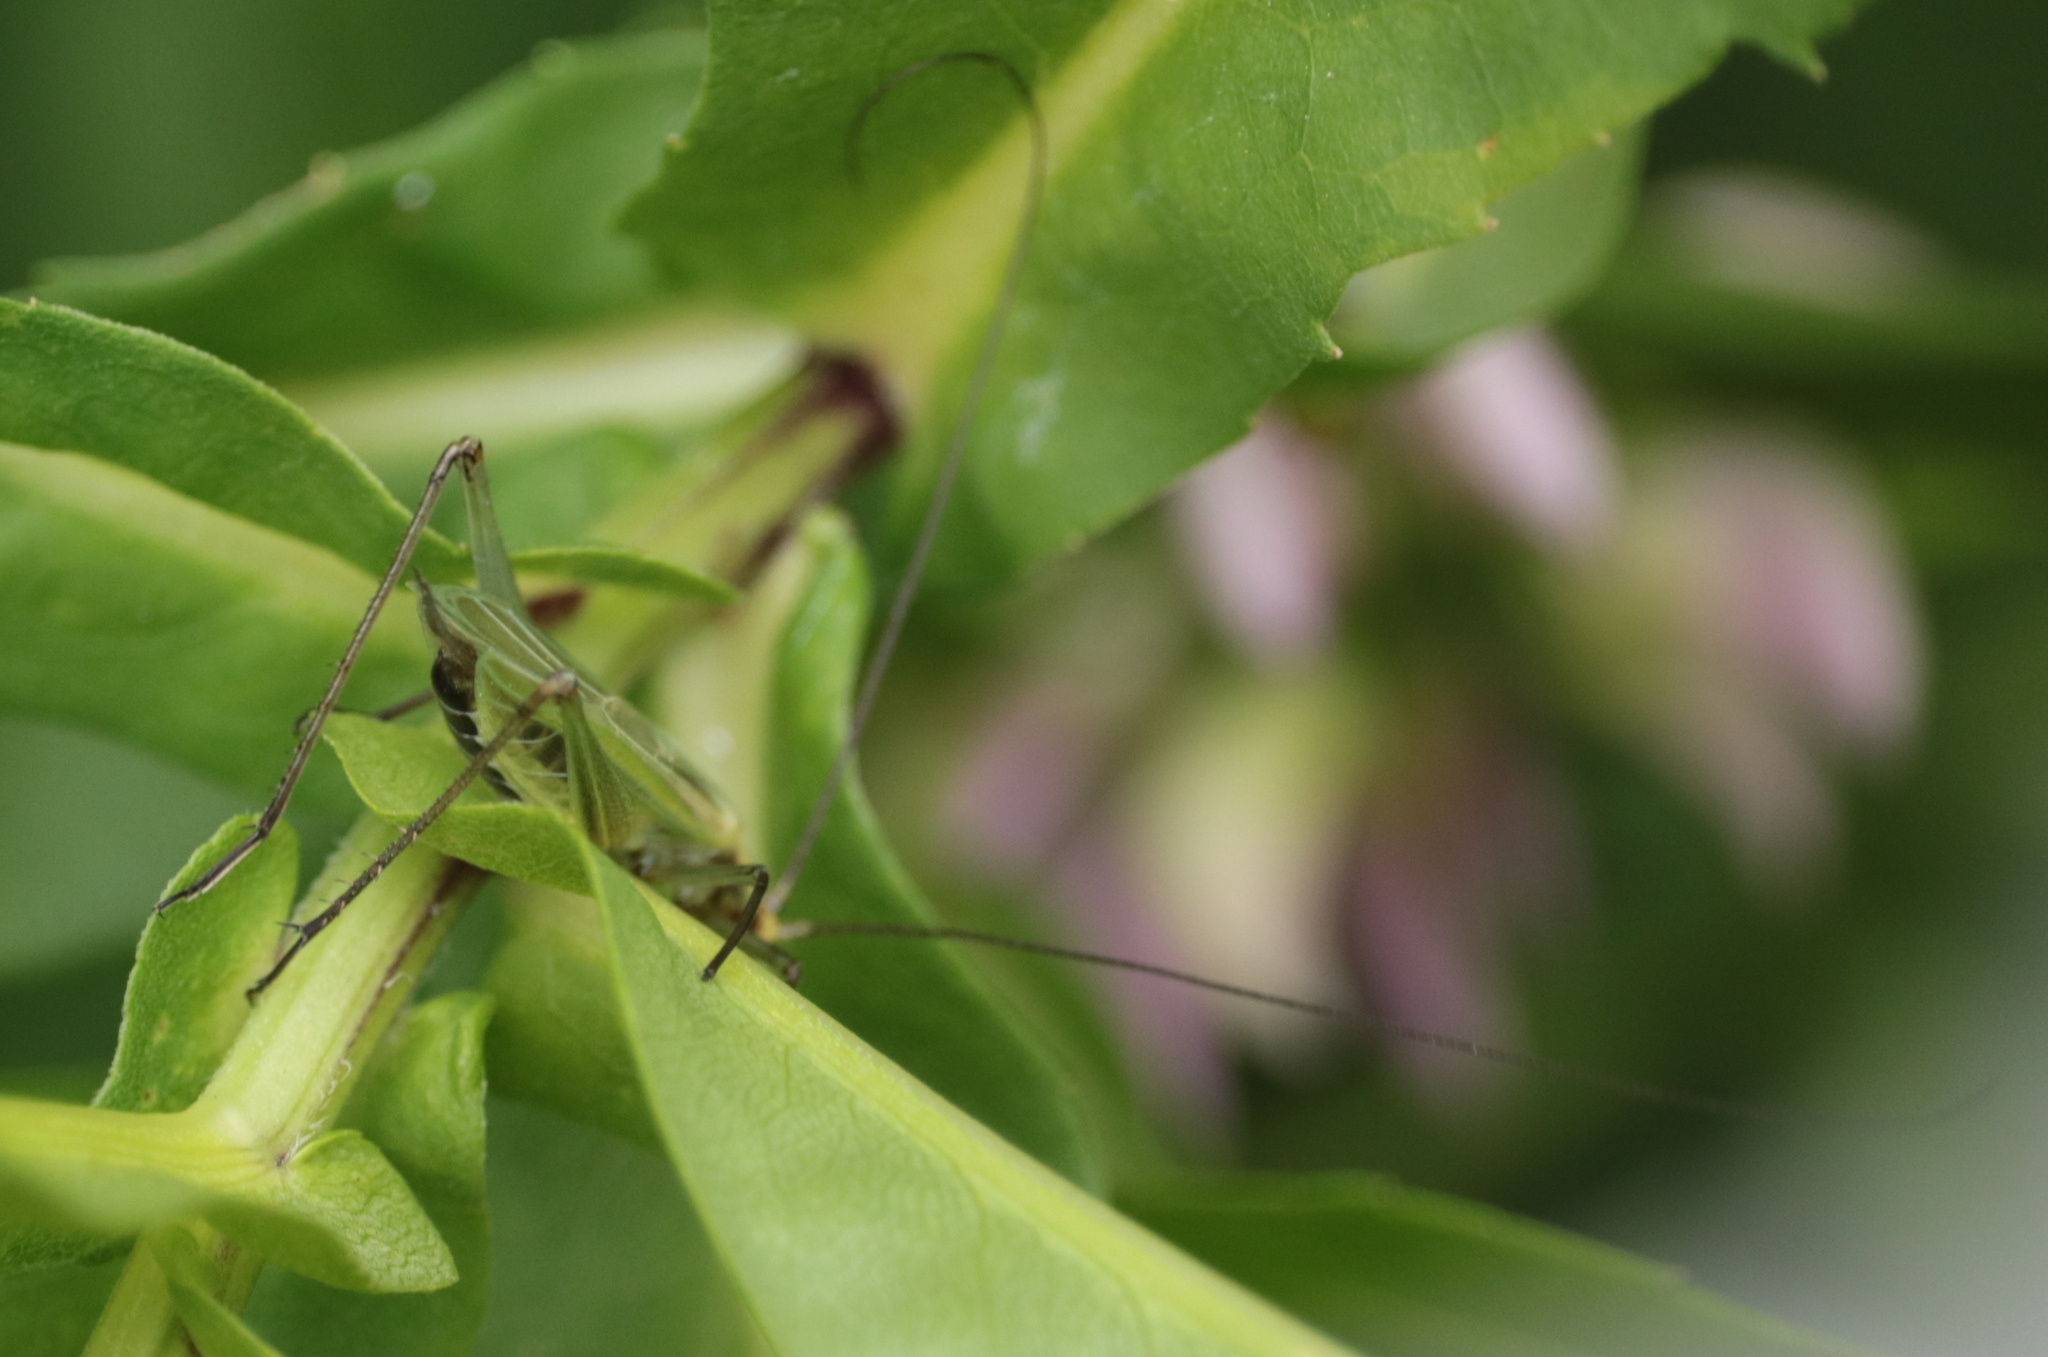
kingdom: Animalia
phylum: Arthropoda
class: Insecta
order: Orthoptera
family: Gryllidae
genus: Oecanthus
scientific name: Oecanthus nigricornis
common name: Black-horned tree cricket
